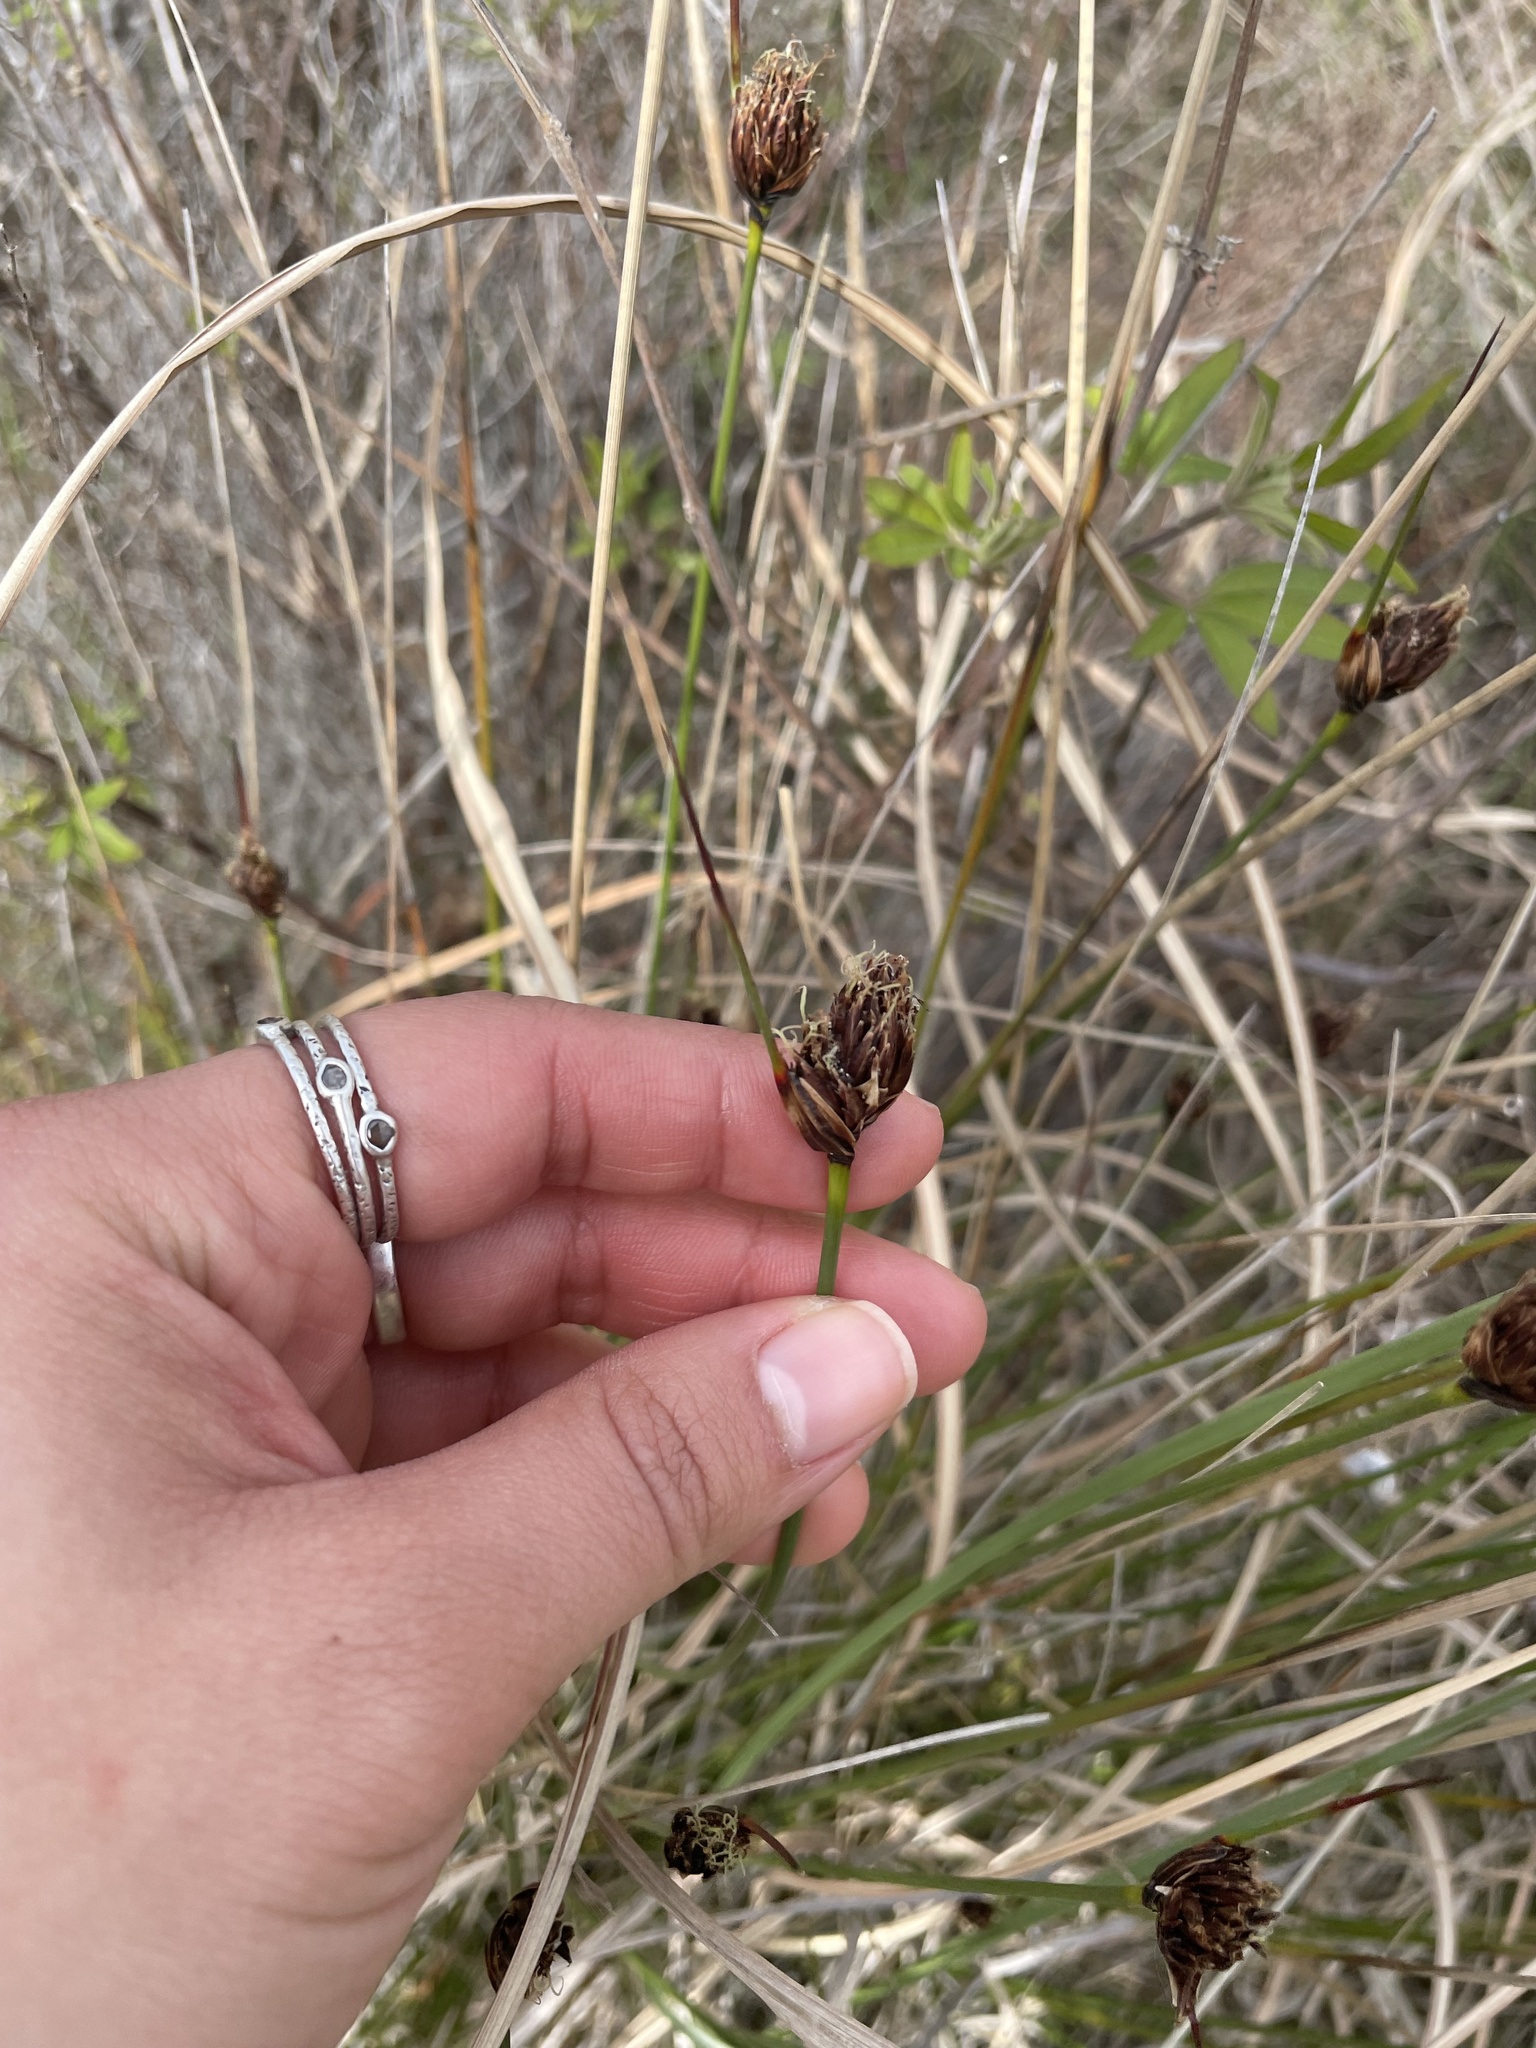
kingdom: Plantae
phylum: Tracheophyta
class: Liliopsida
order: Poales
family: Cyperaceae
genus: Bolboschoenus
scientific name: Bolboschoenus maritimus
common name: Sea club-rush
